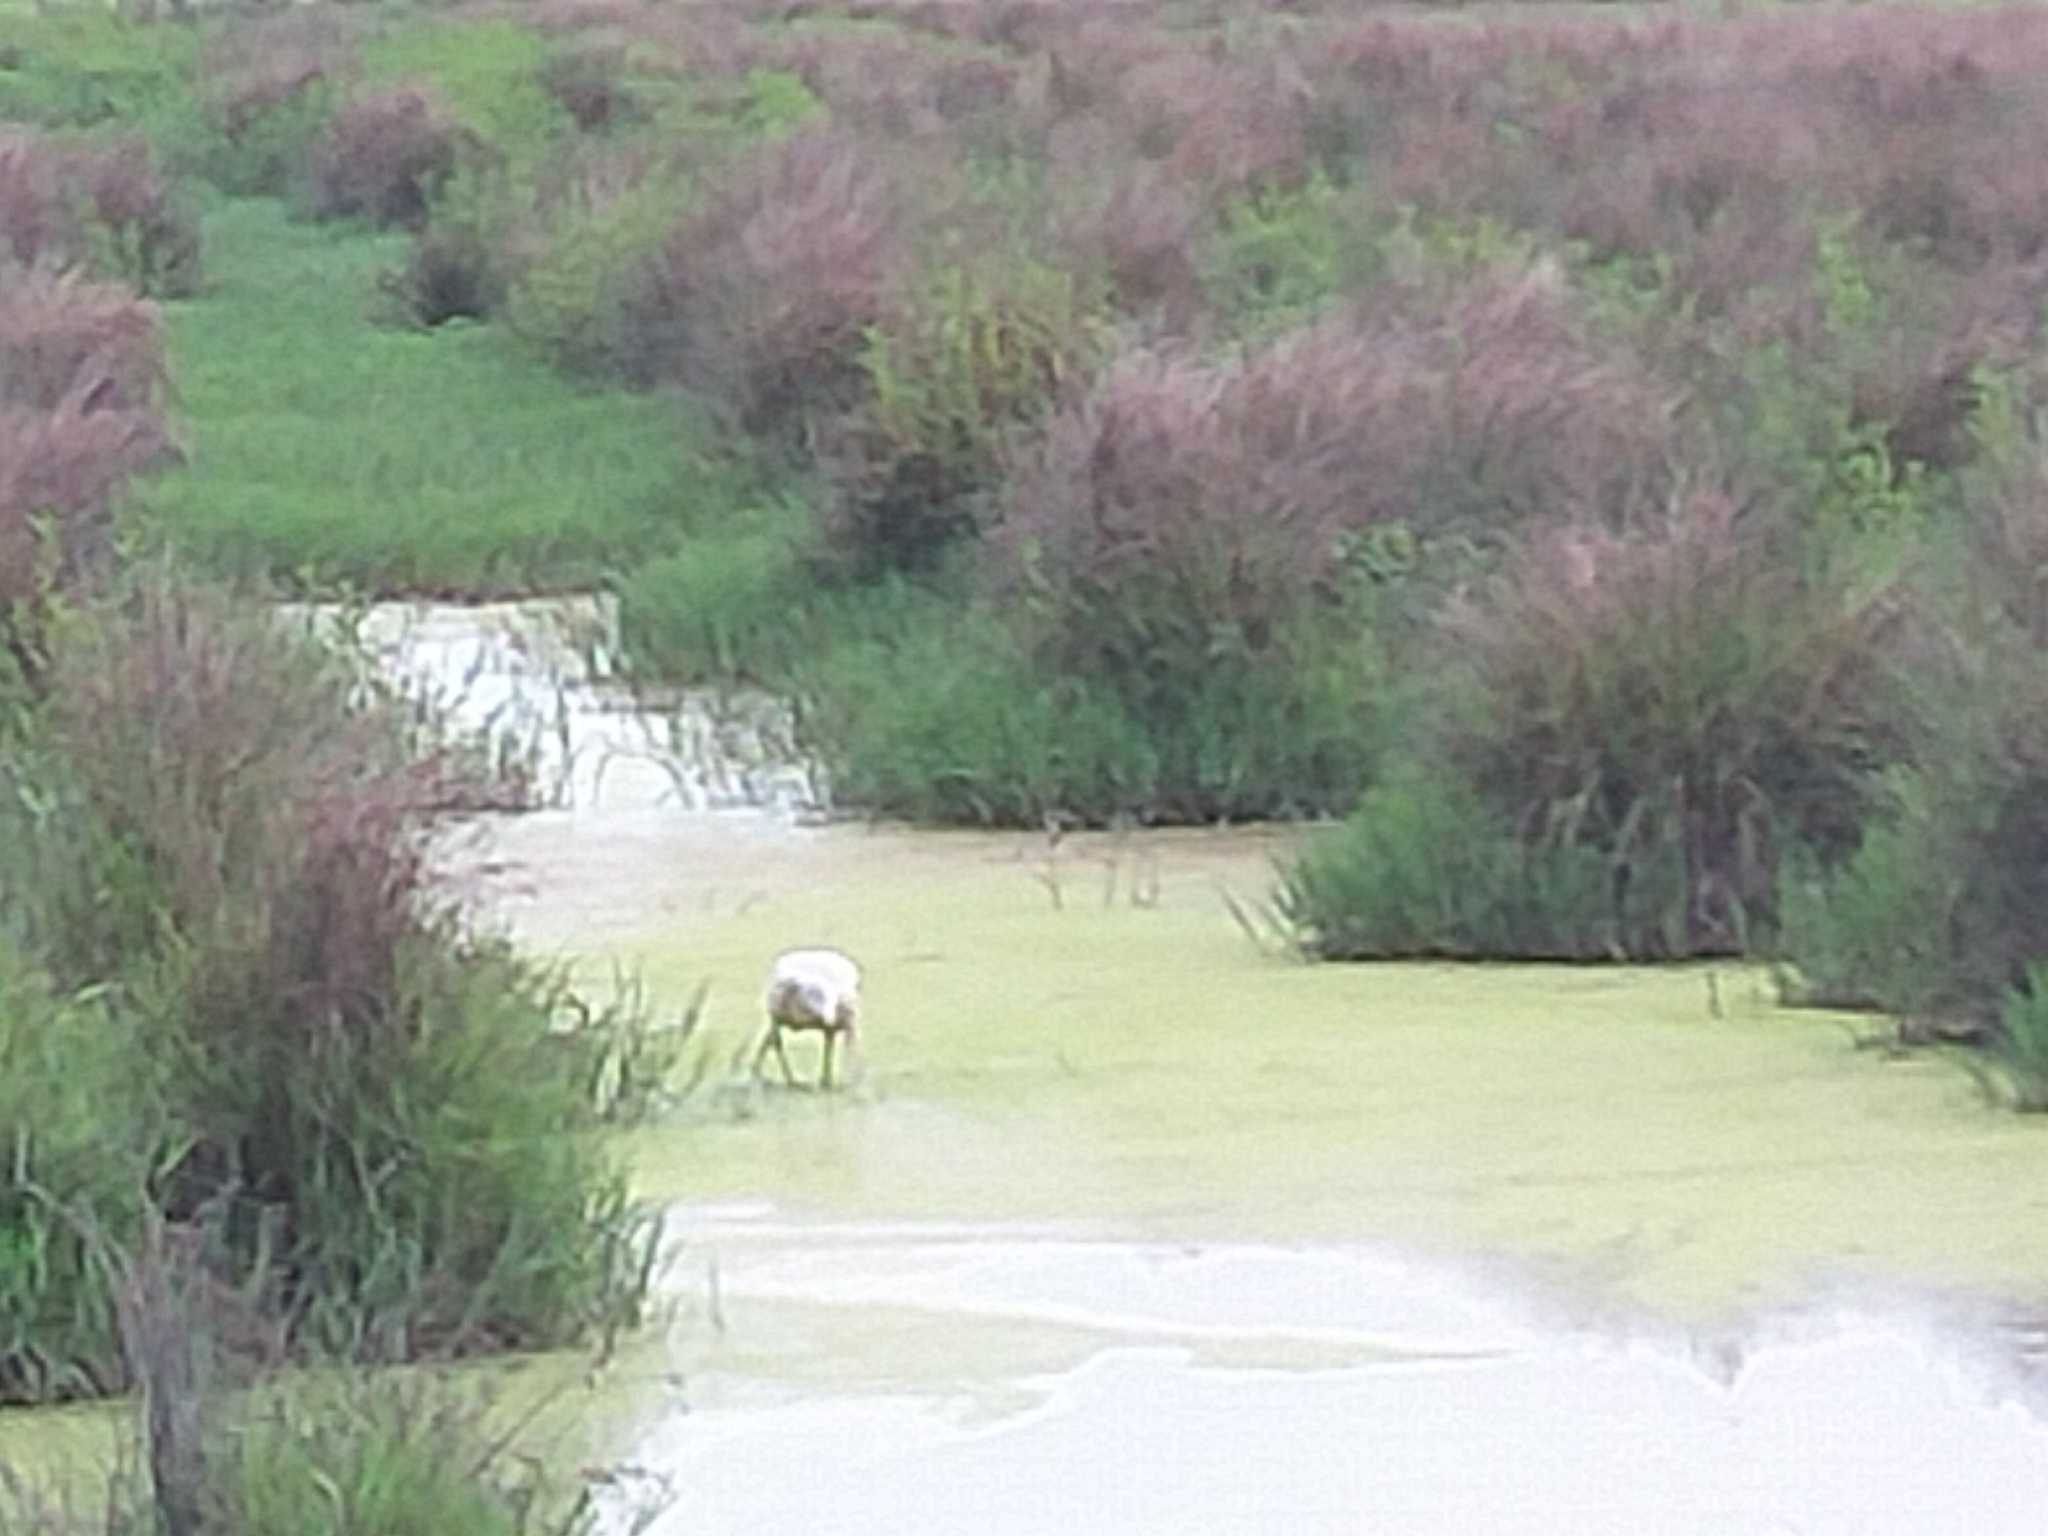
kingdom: Animalia
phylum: Chordata
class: Aves
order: Pelecaniformes
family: Threskiornithidae
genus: Platalea
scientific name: Platalea flavipes
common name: Yellow-billed spoonbill
